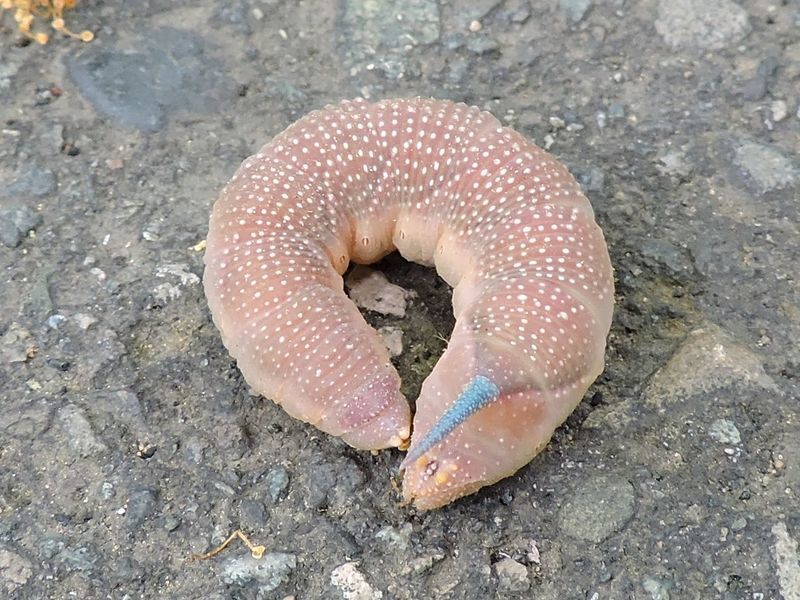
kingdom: Animalia
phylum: Arthropoda
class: Insecta
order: Lepidoptera
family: Sphingidae
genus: Mimas
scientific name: Mimas tiliae
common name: Lime hawk-moth
